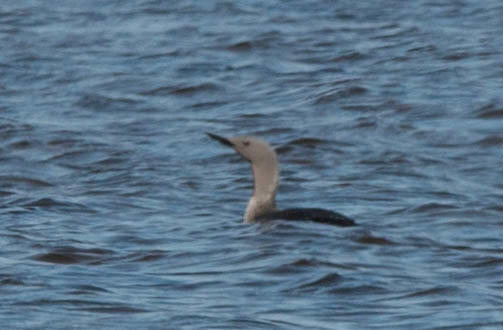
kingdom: Animalia
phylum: Chordata
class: Aves
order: Gaviiformes
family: Gaviidae
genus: Gavia
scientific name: Gavia stellata
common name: Red-throated loon
